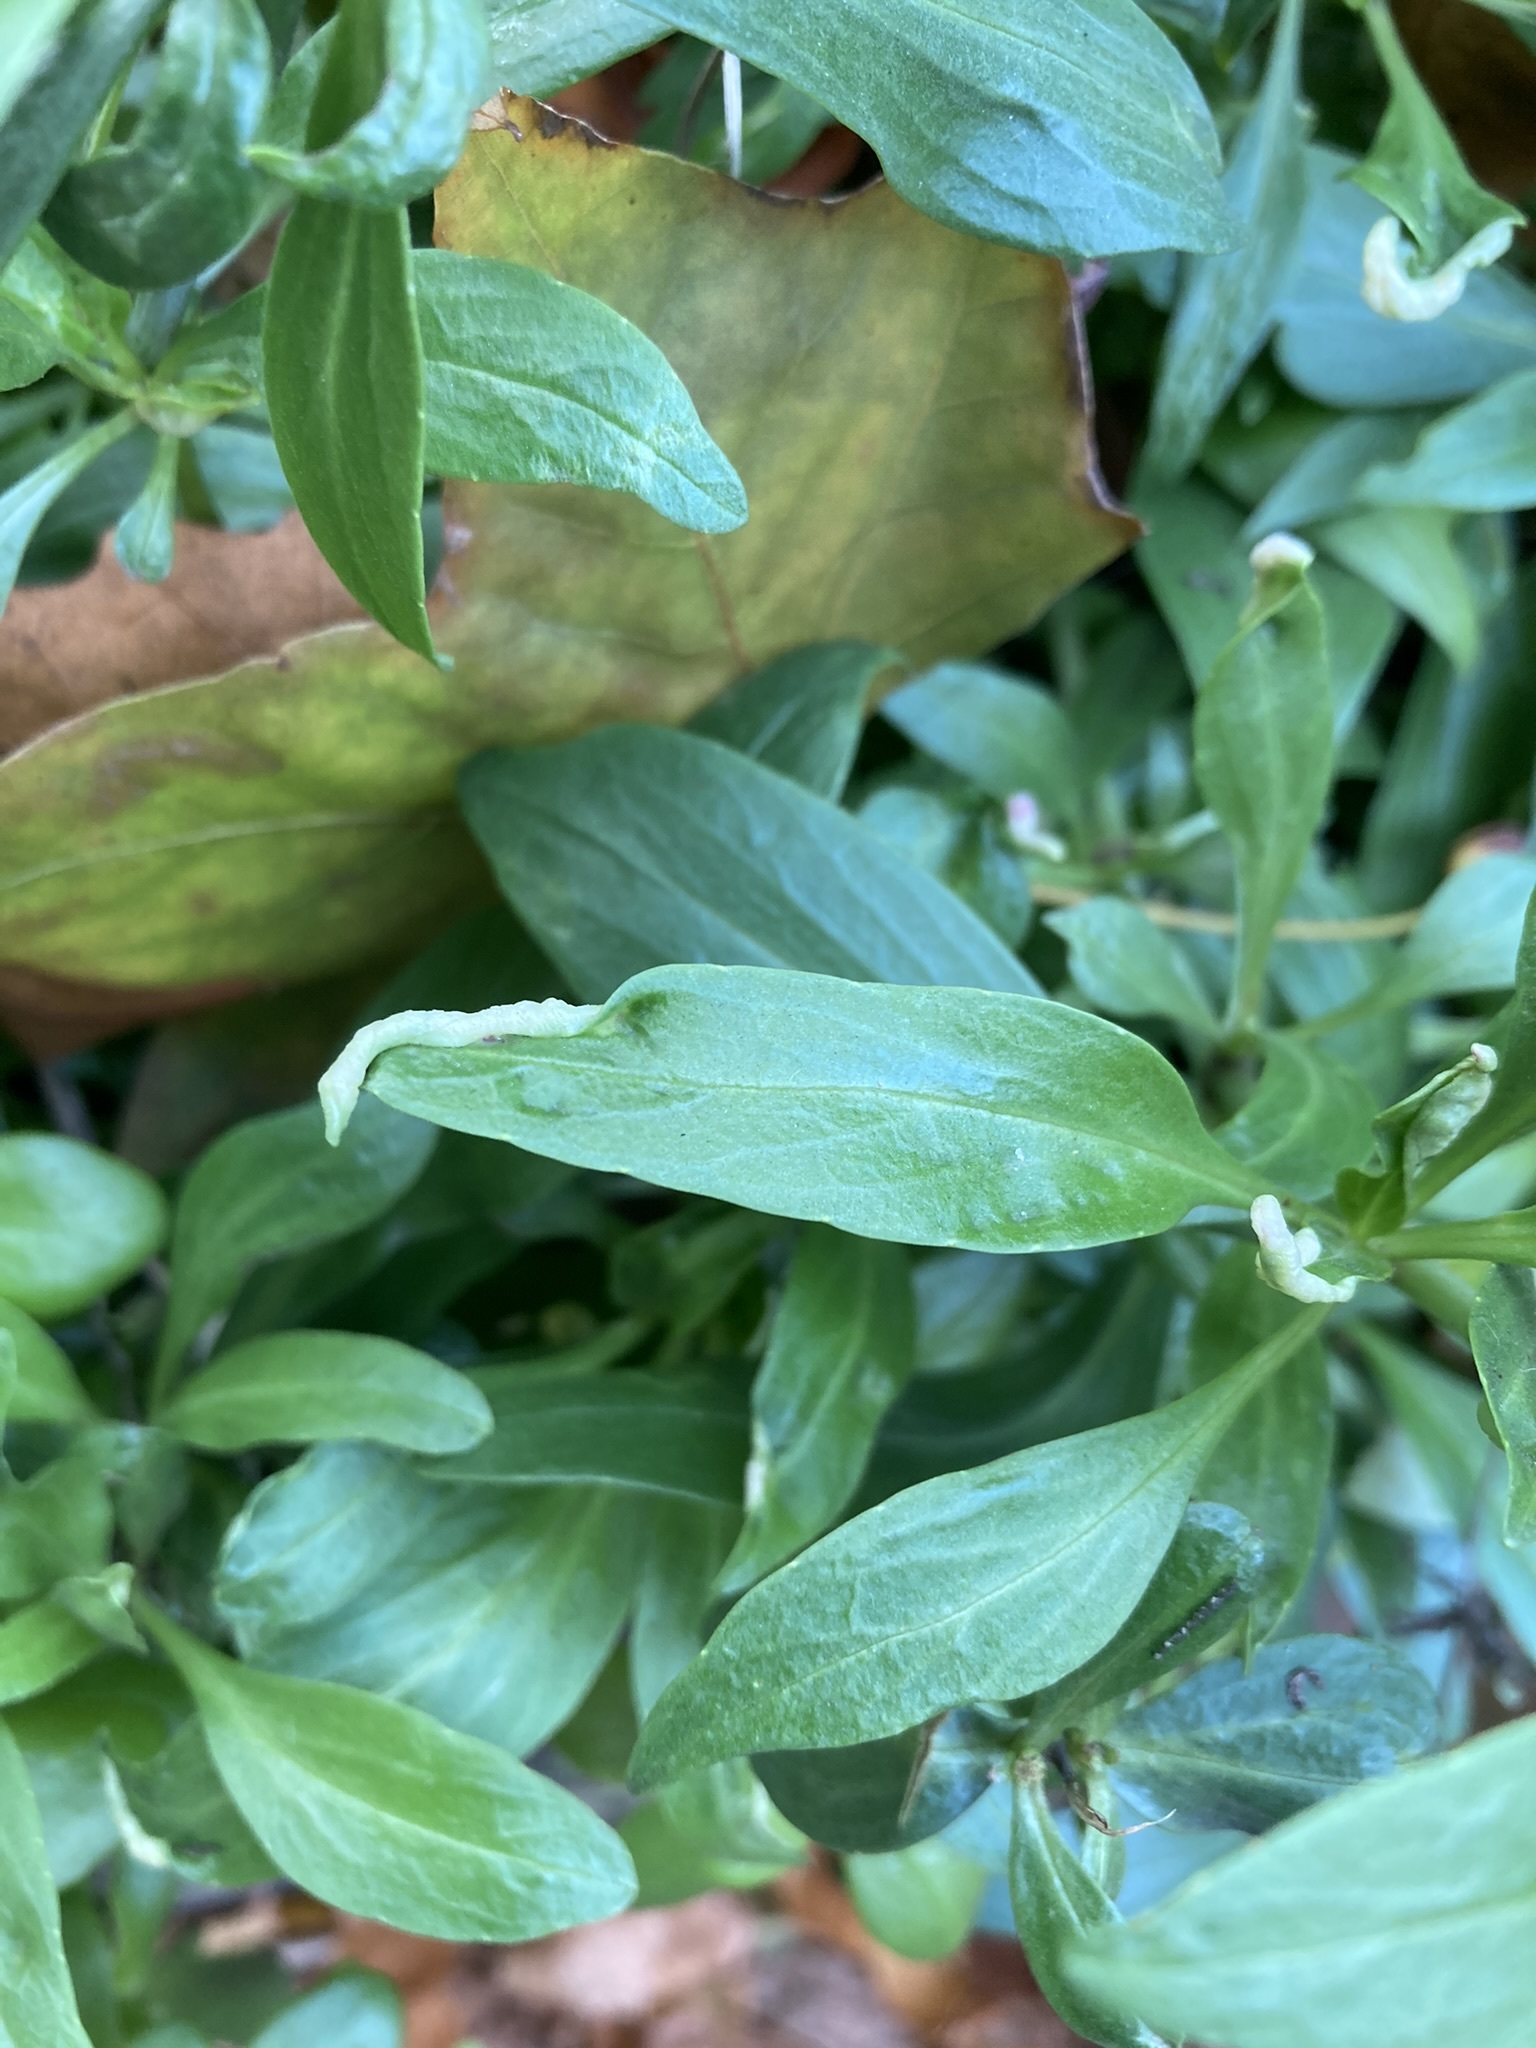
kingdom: Plantae
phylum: Tracheophyta
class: Magnoliopsida
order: Dipsacales
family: Caprifoliaceae
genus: Centranthus
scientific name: Centranthus ruber
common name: Red valerian
